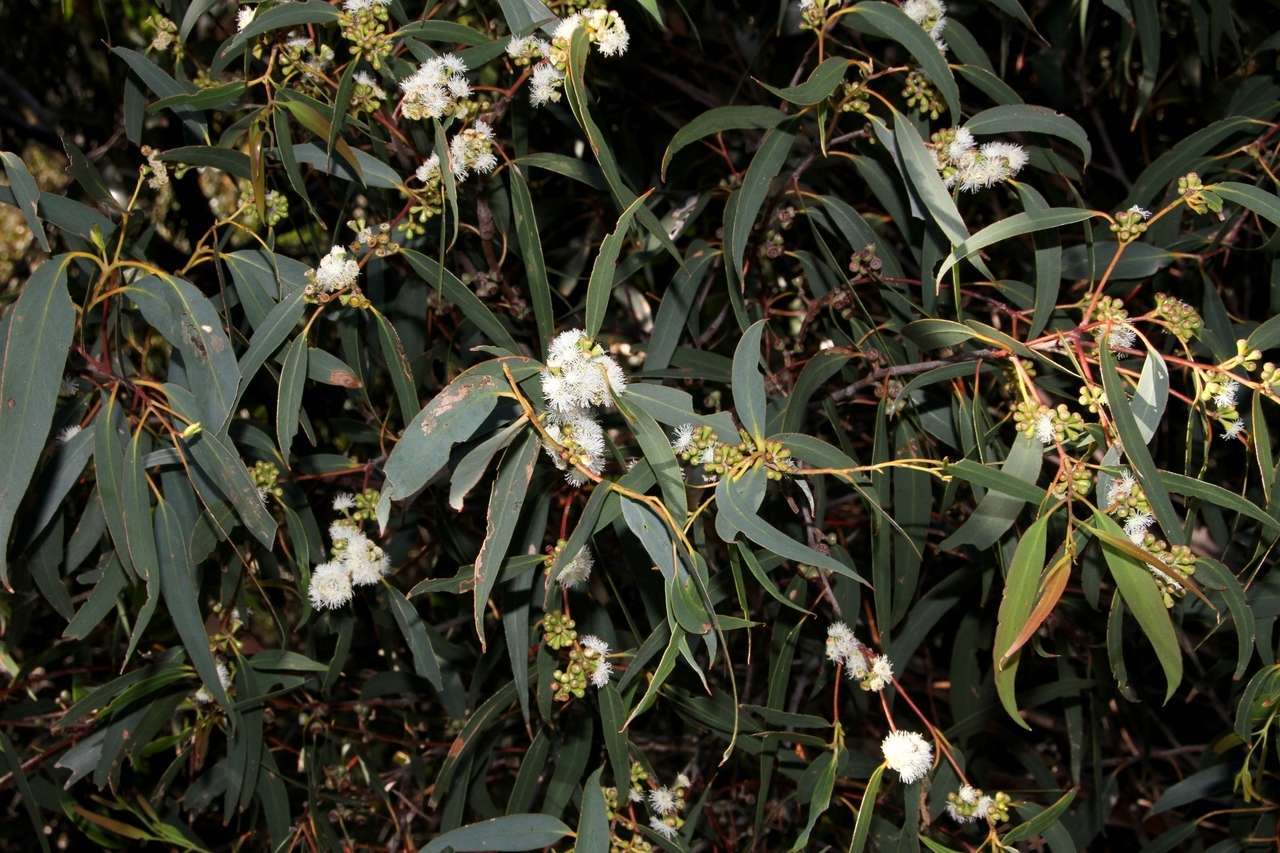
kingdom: Plantae
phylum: Tracheophyta
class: Magnoliopsida
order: Myrtales
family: Myrtaceae
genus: Eucalyptus
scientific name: Eucalyptus willisii
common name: South gippsland peppermint
